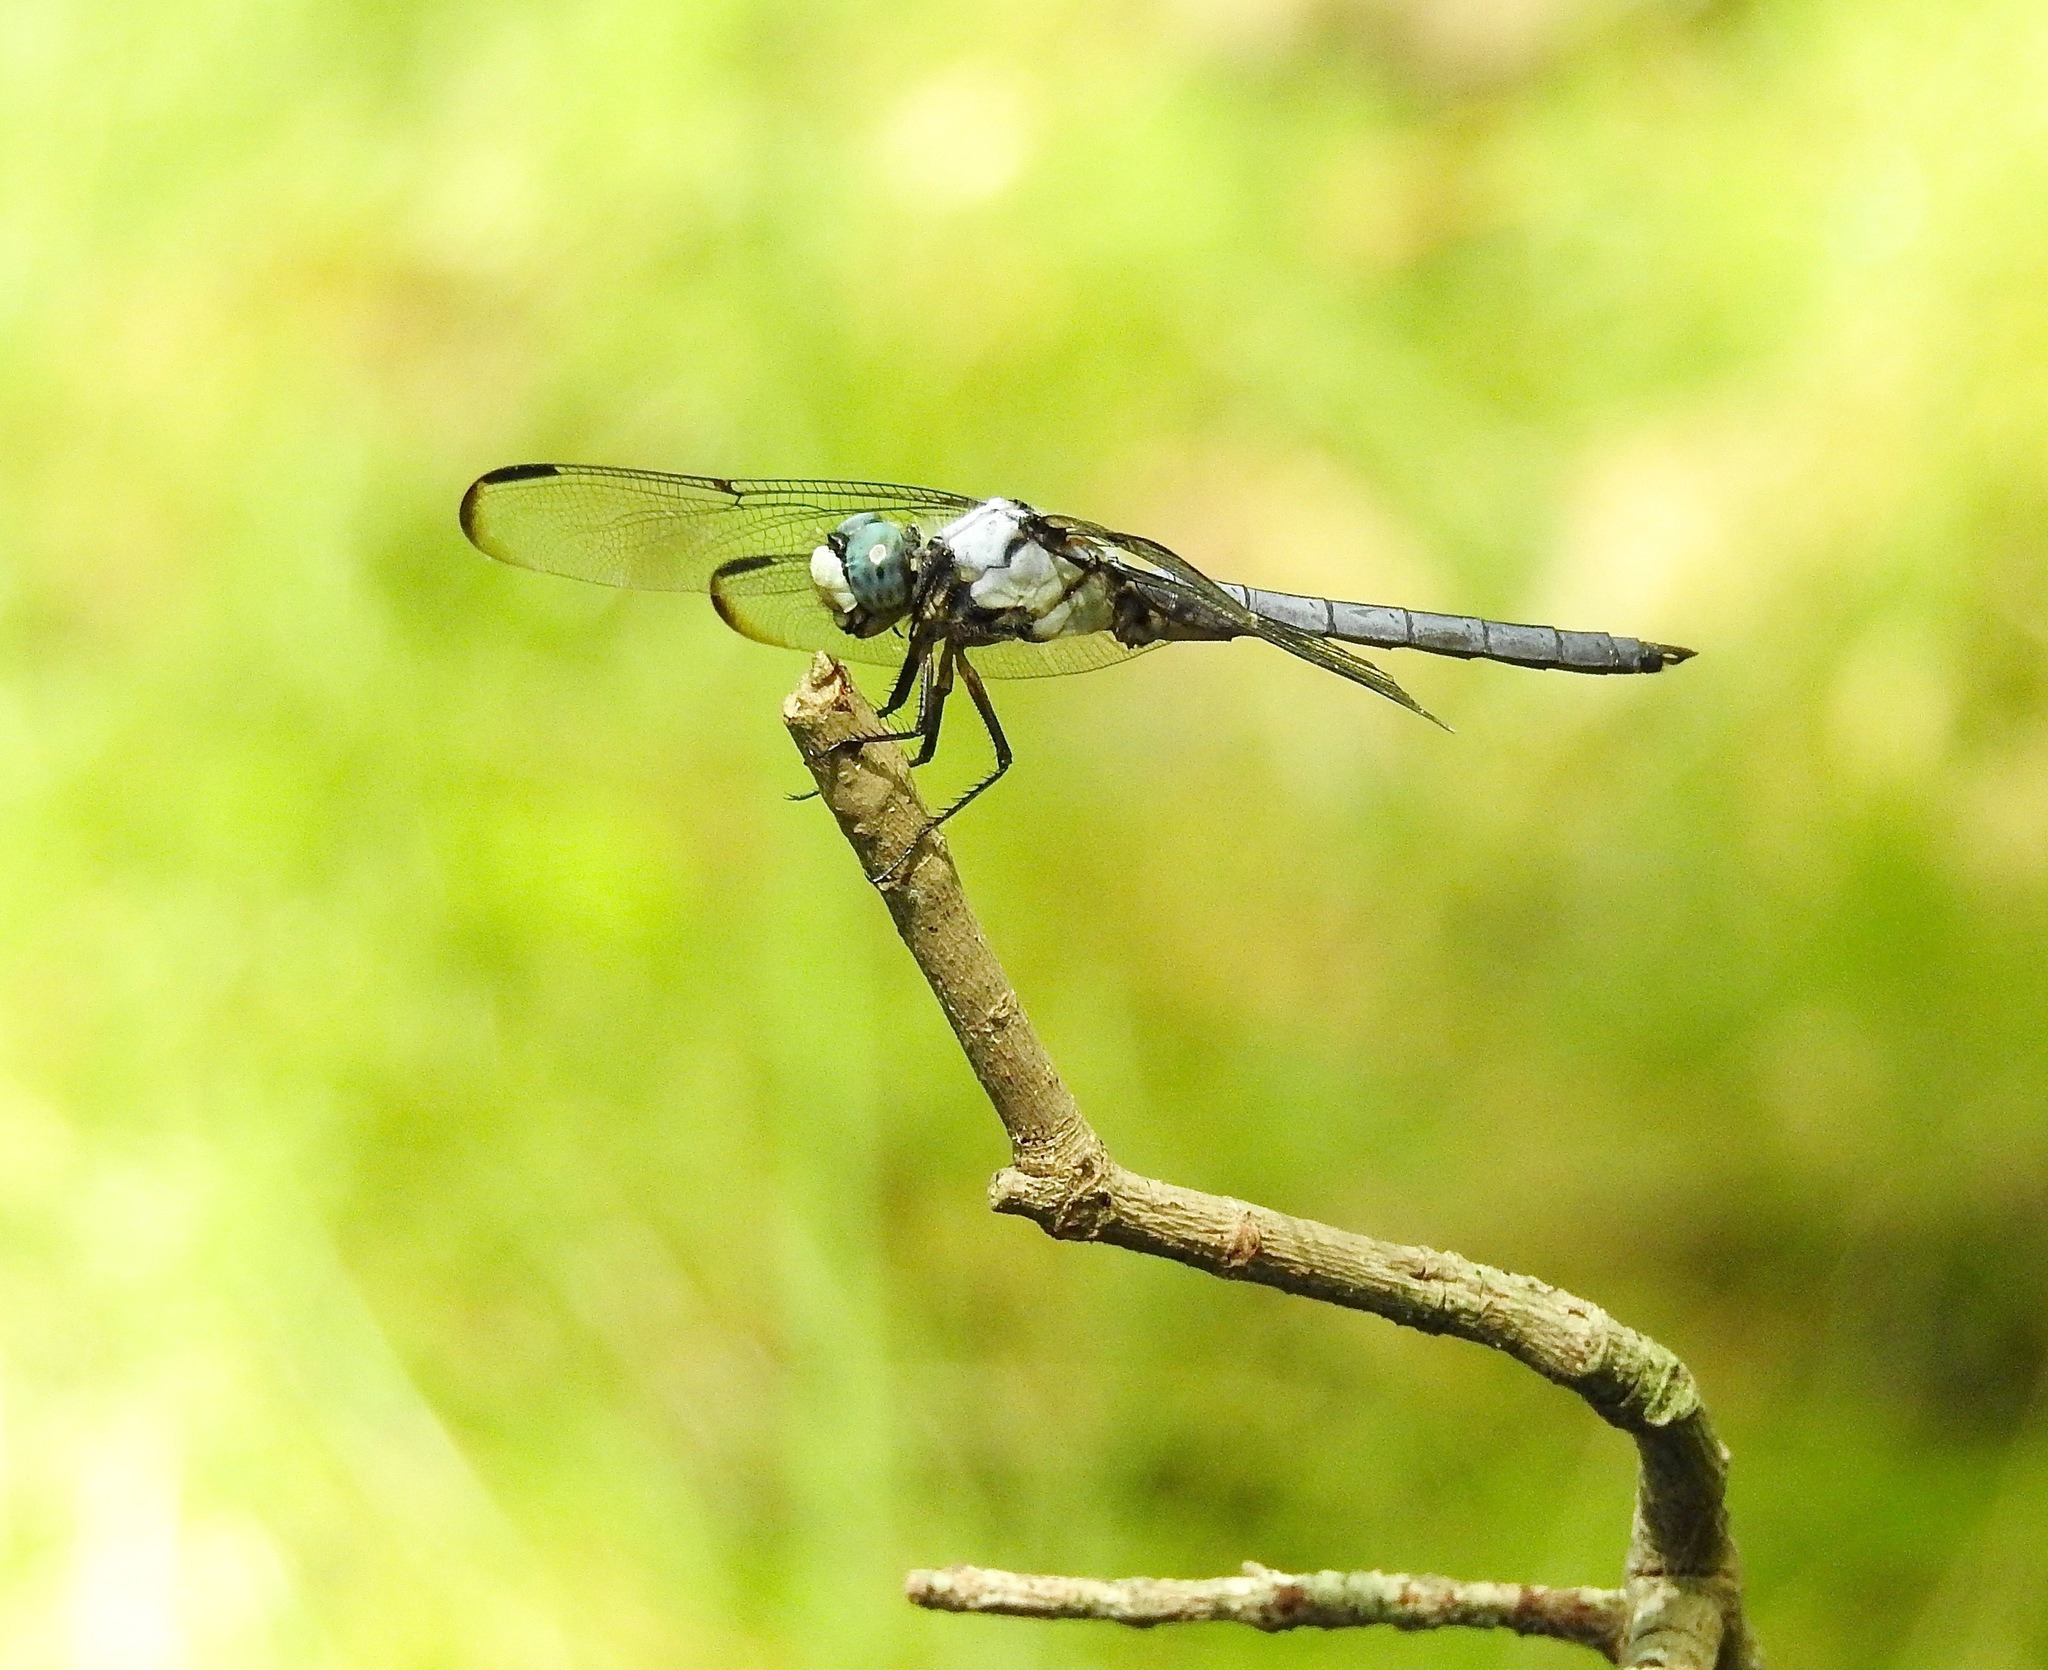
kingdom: Animalia
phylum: Arthropoda
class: Insecta
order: Odonata
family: Libellulidae
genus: Libellula
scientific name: Libellula vibrans
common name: Great blue skimmer
